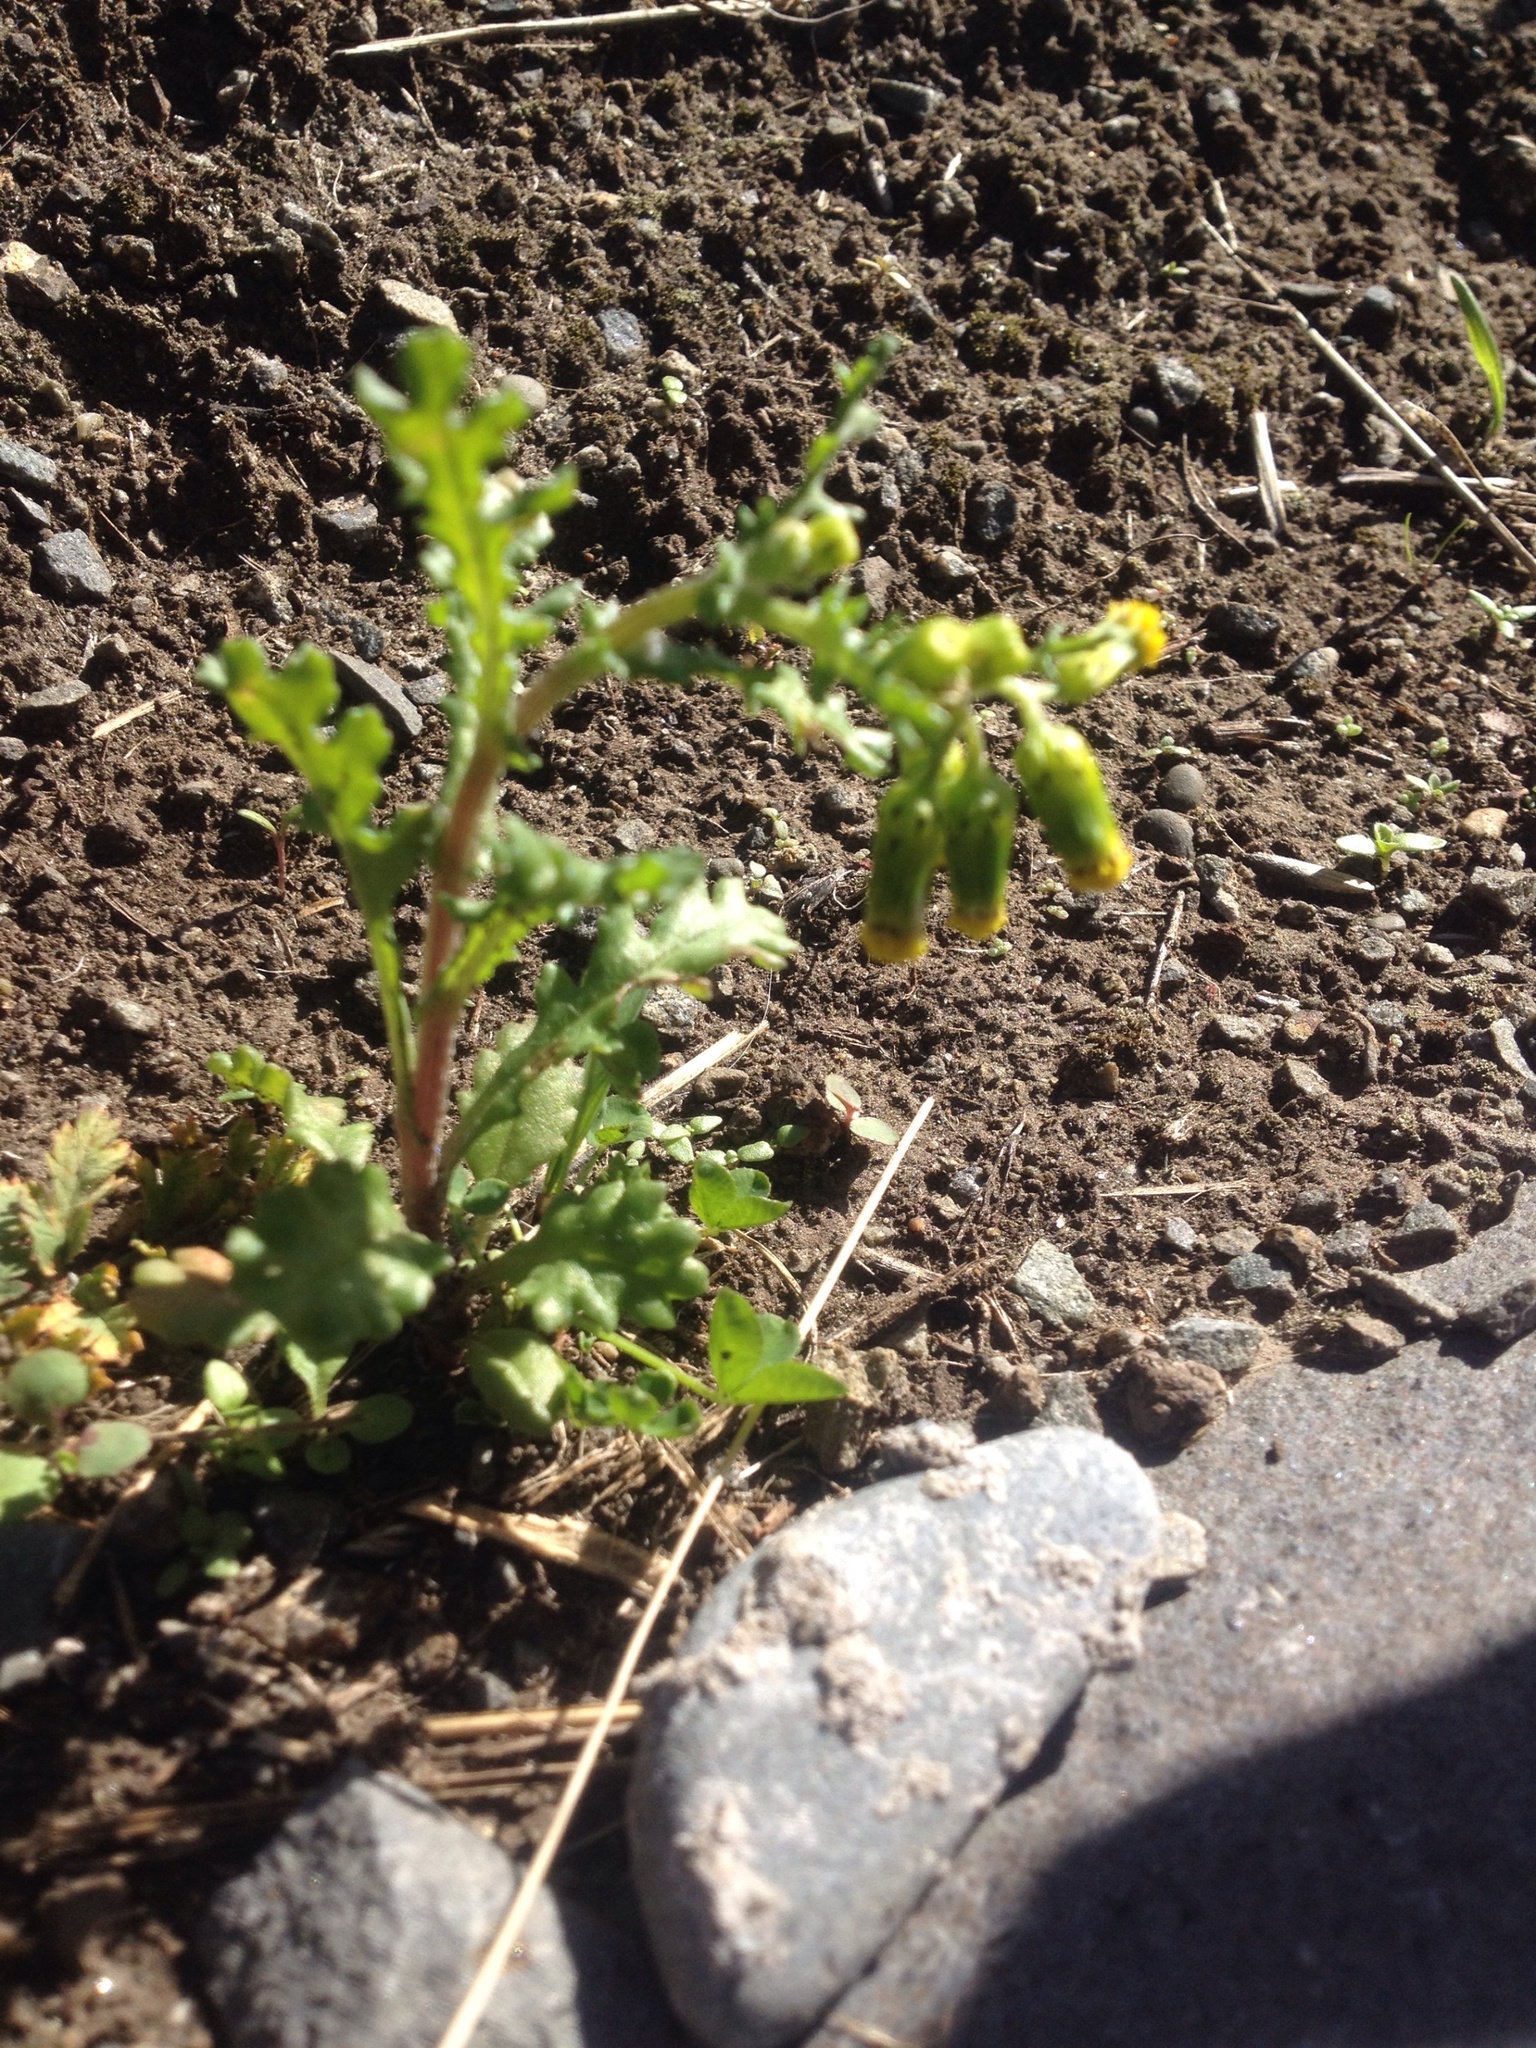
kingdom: Plantae
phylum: Tracheophyta
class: Magnoliopsida
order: Asterales
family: Asteraceae
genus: Senecio
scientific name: Senecio vulgaris
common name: Old-man-in-the-spring
